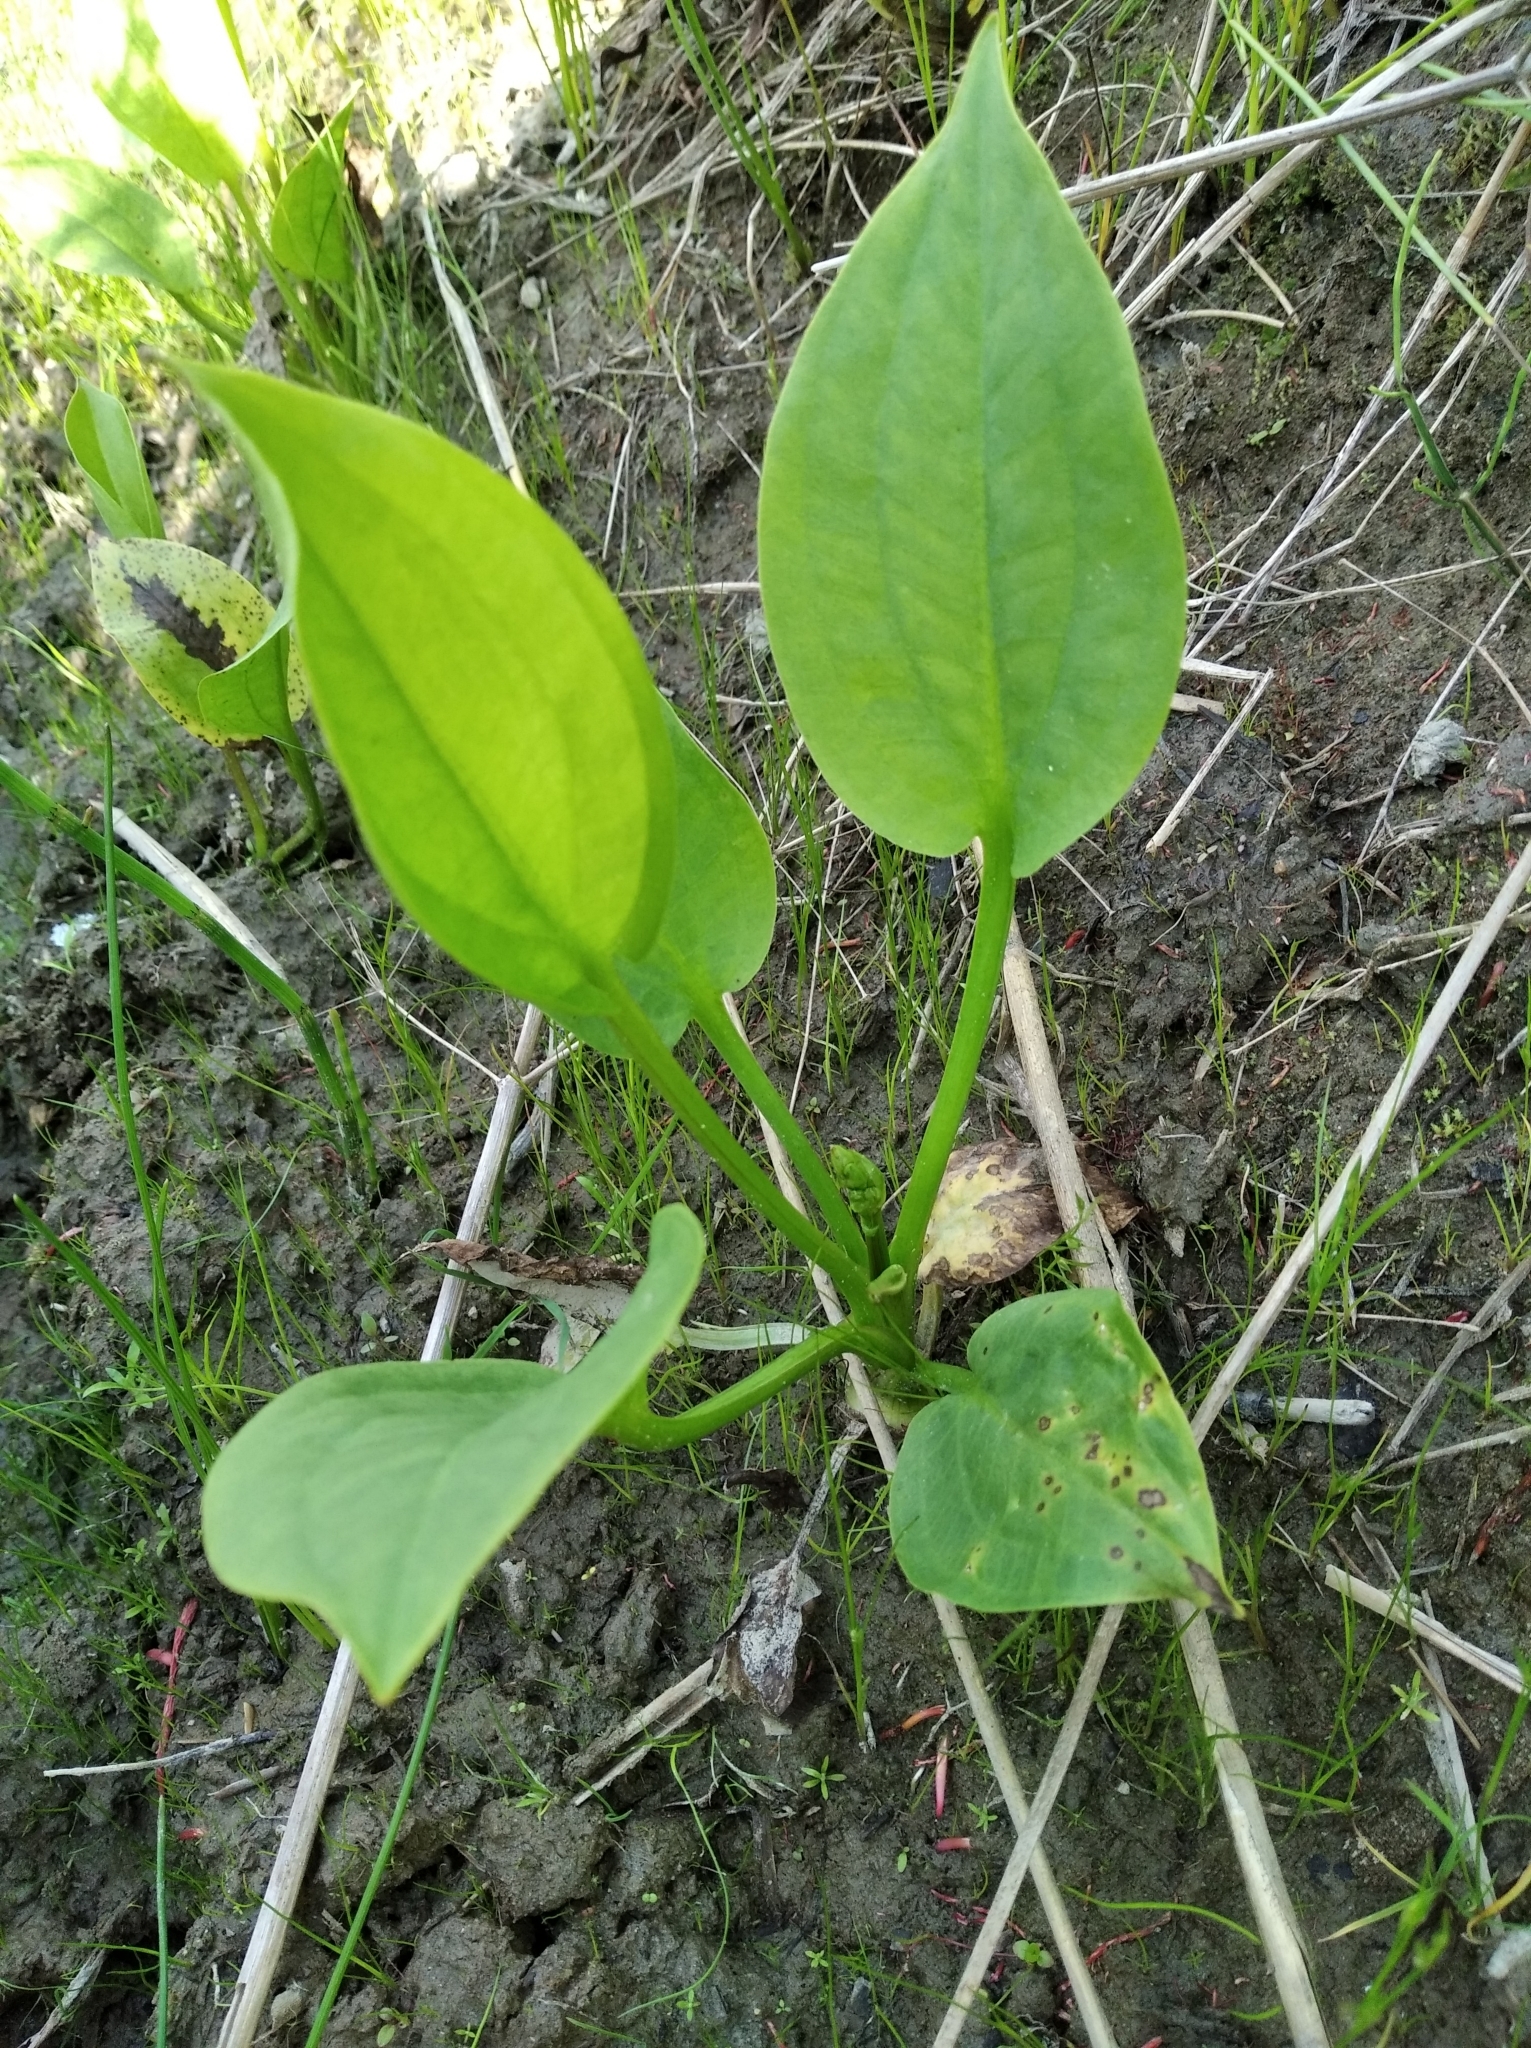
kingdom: Plantae
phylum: Tracheophyta
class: Liliopsida
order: Alismatales
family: Alismataceae
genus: Alisma
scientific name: Alisma plantago-aquatica
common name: Water-plantain
